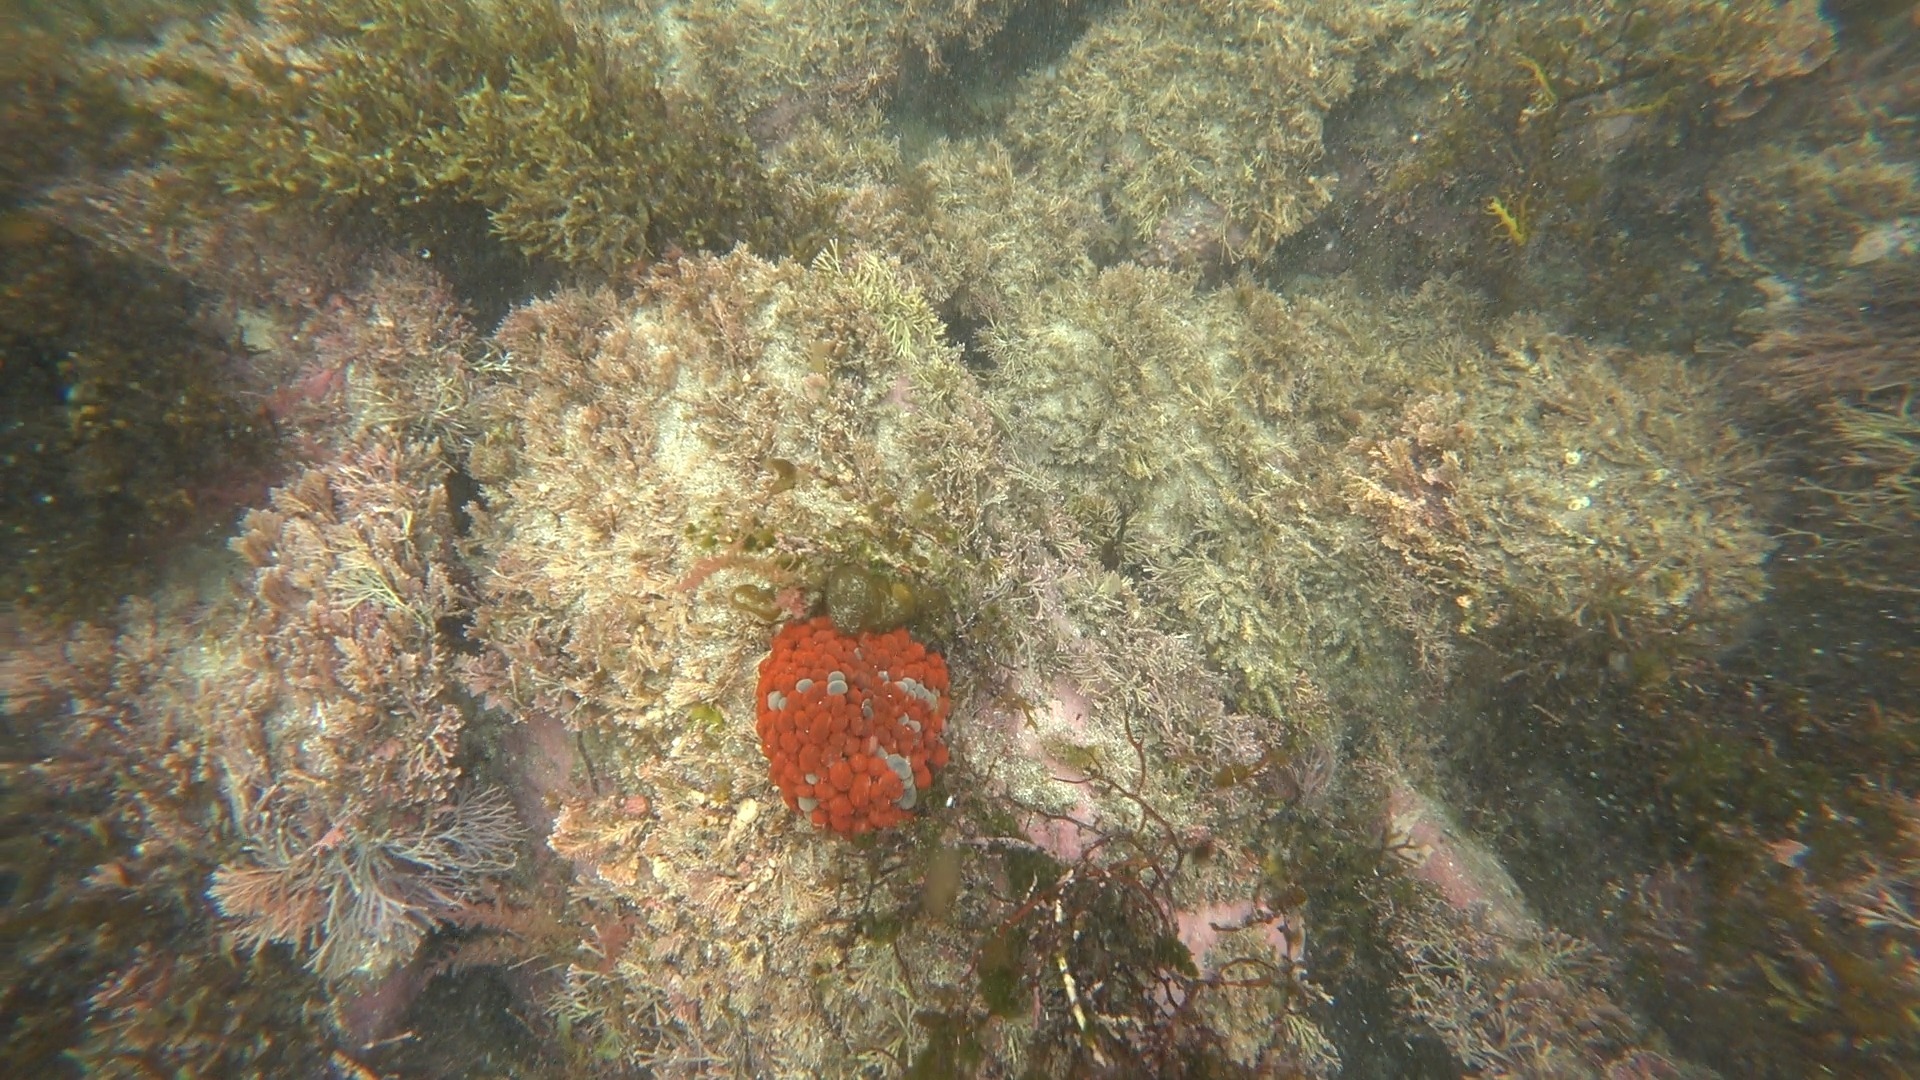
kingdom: Animalia
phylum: Cnidaria
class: Anthozoa
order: Actiniaria
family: Actiniidae
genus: Phlyctenactis
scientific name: Phlyctenactis tuberculosa
